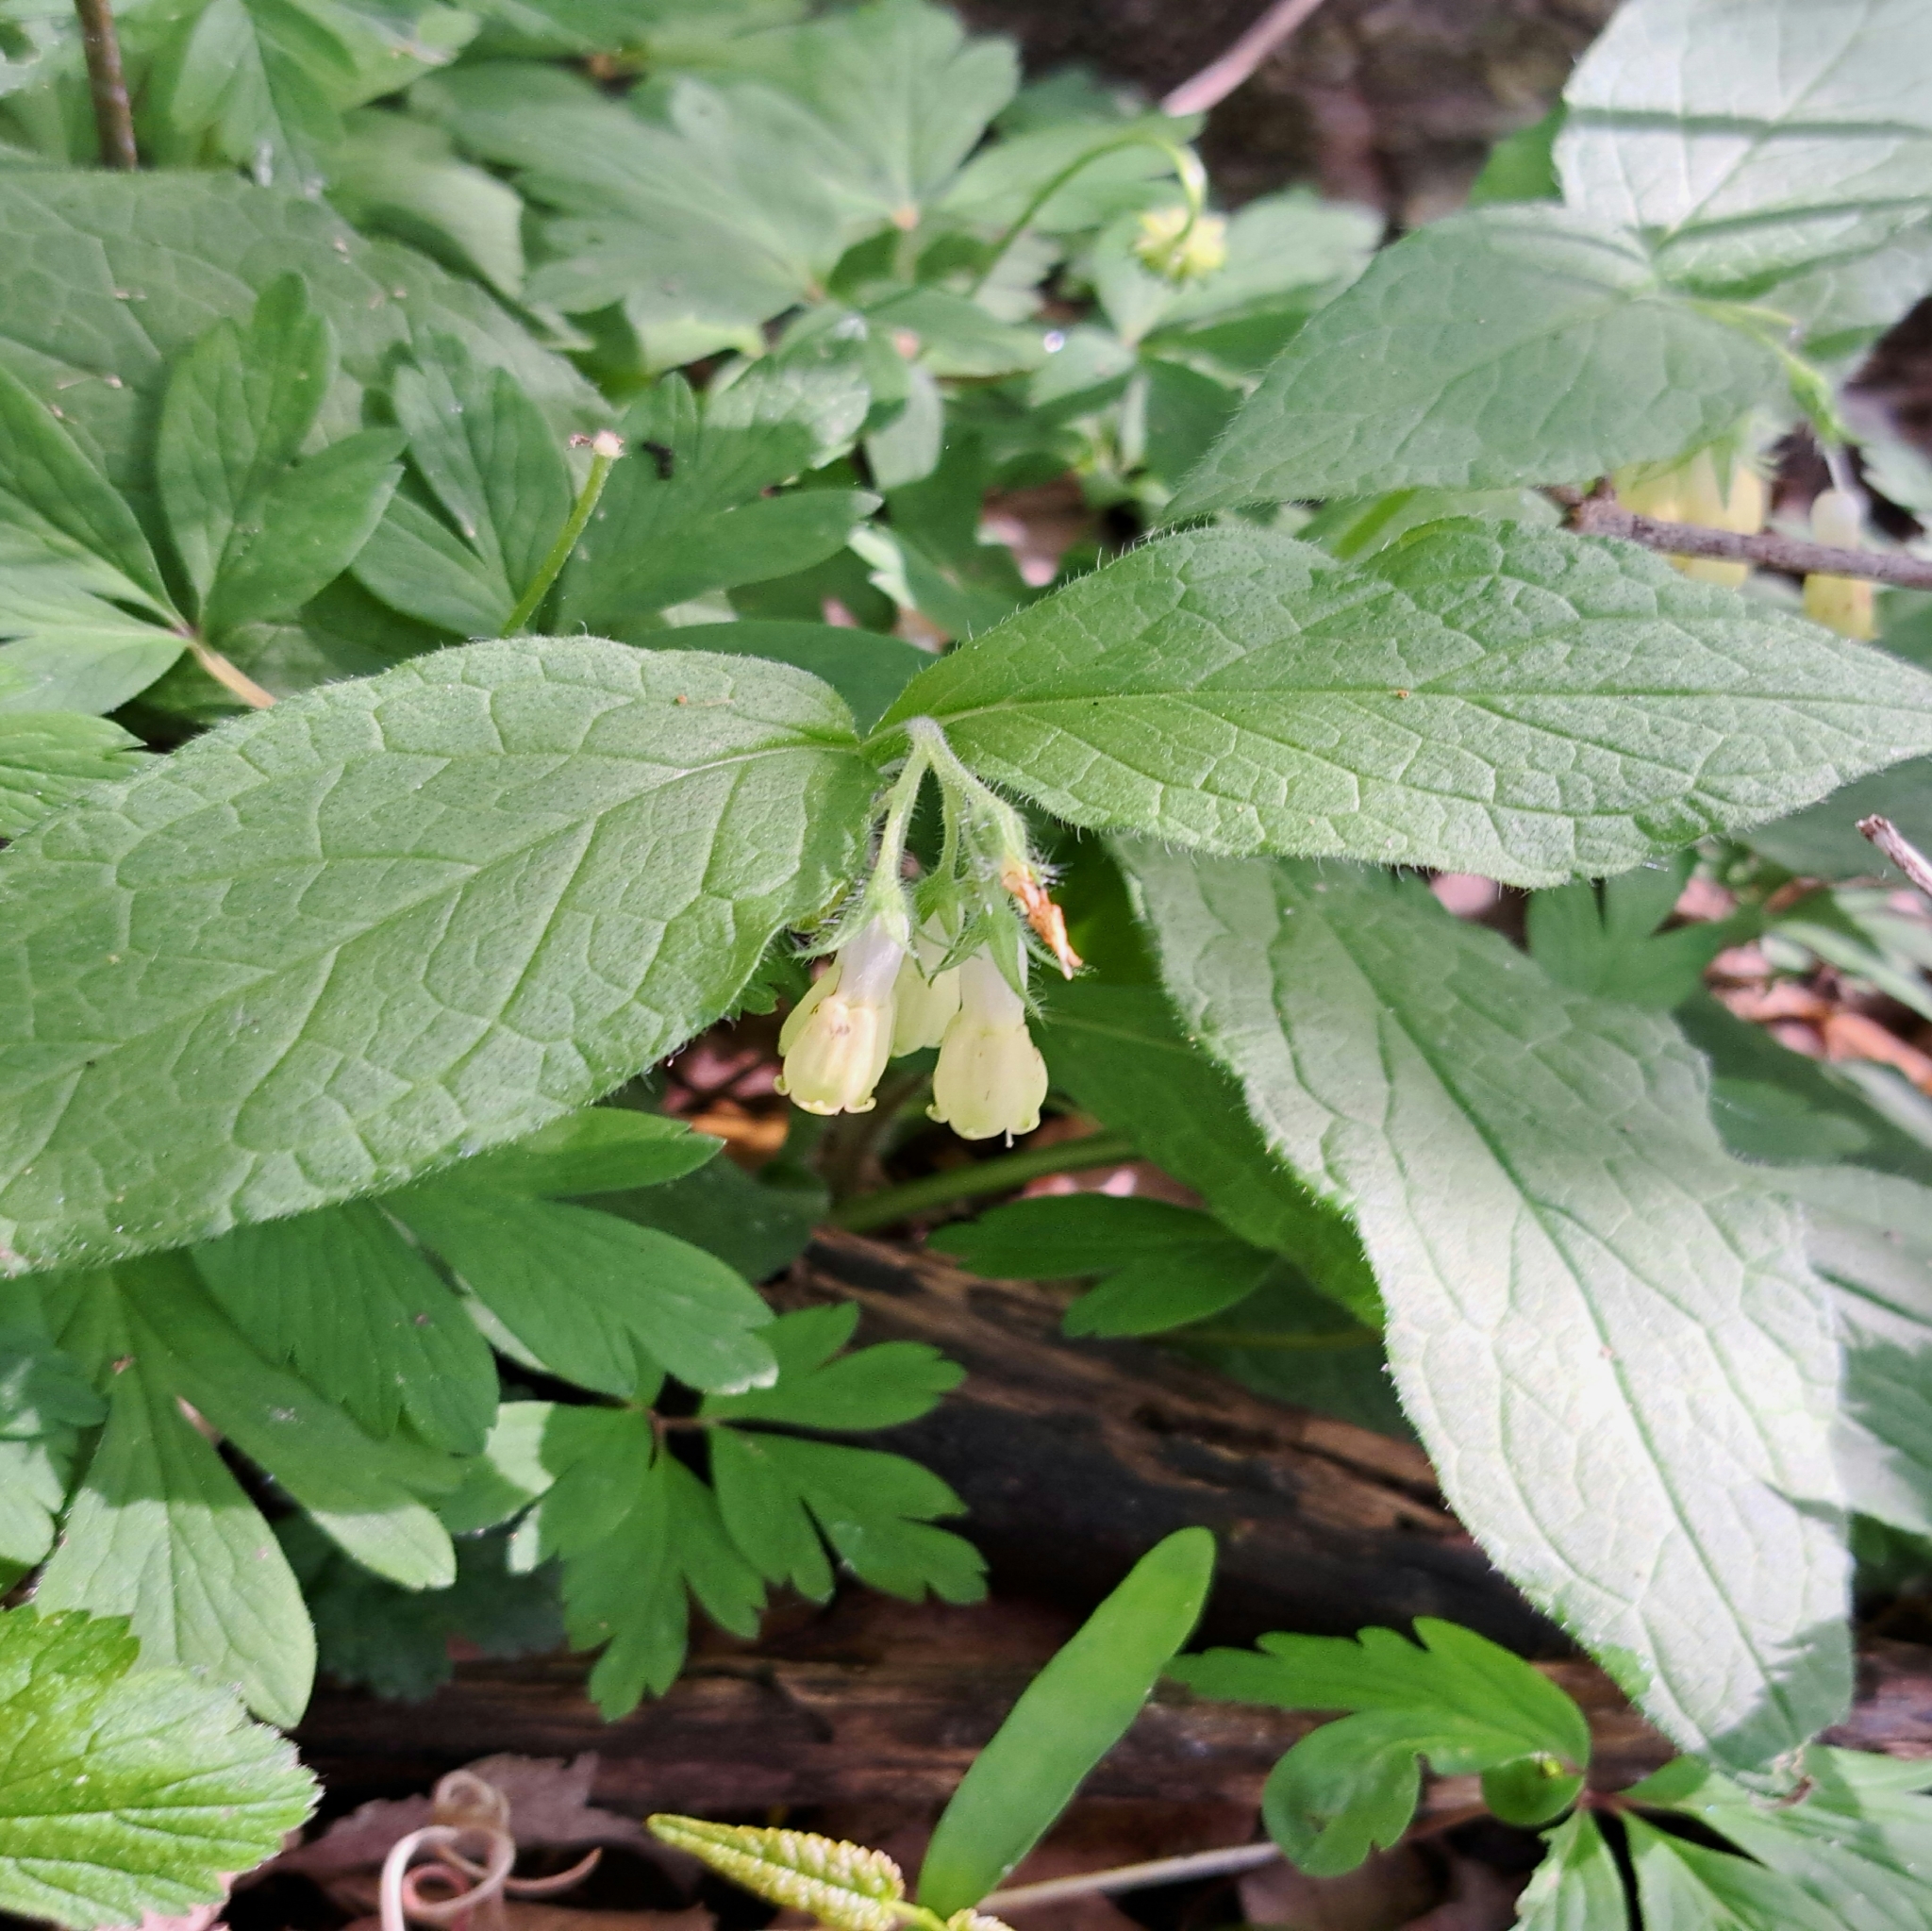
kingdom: Plantae
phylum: Tracheophyta
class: Magnoliopsida
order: Boraginales
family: Boraginaceae
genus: Symphytum
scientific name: Symphytum tuberosum
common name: Tuberous comfrey
